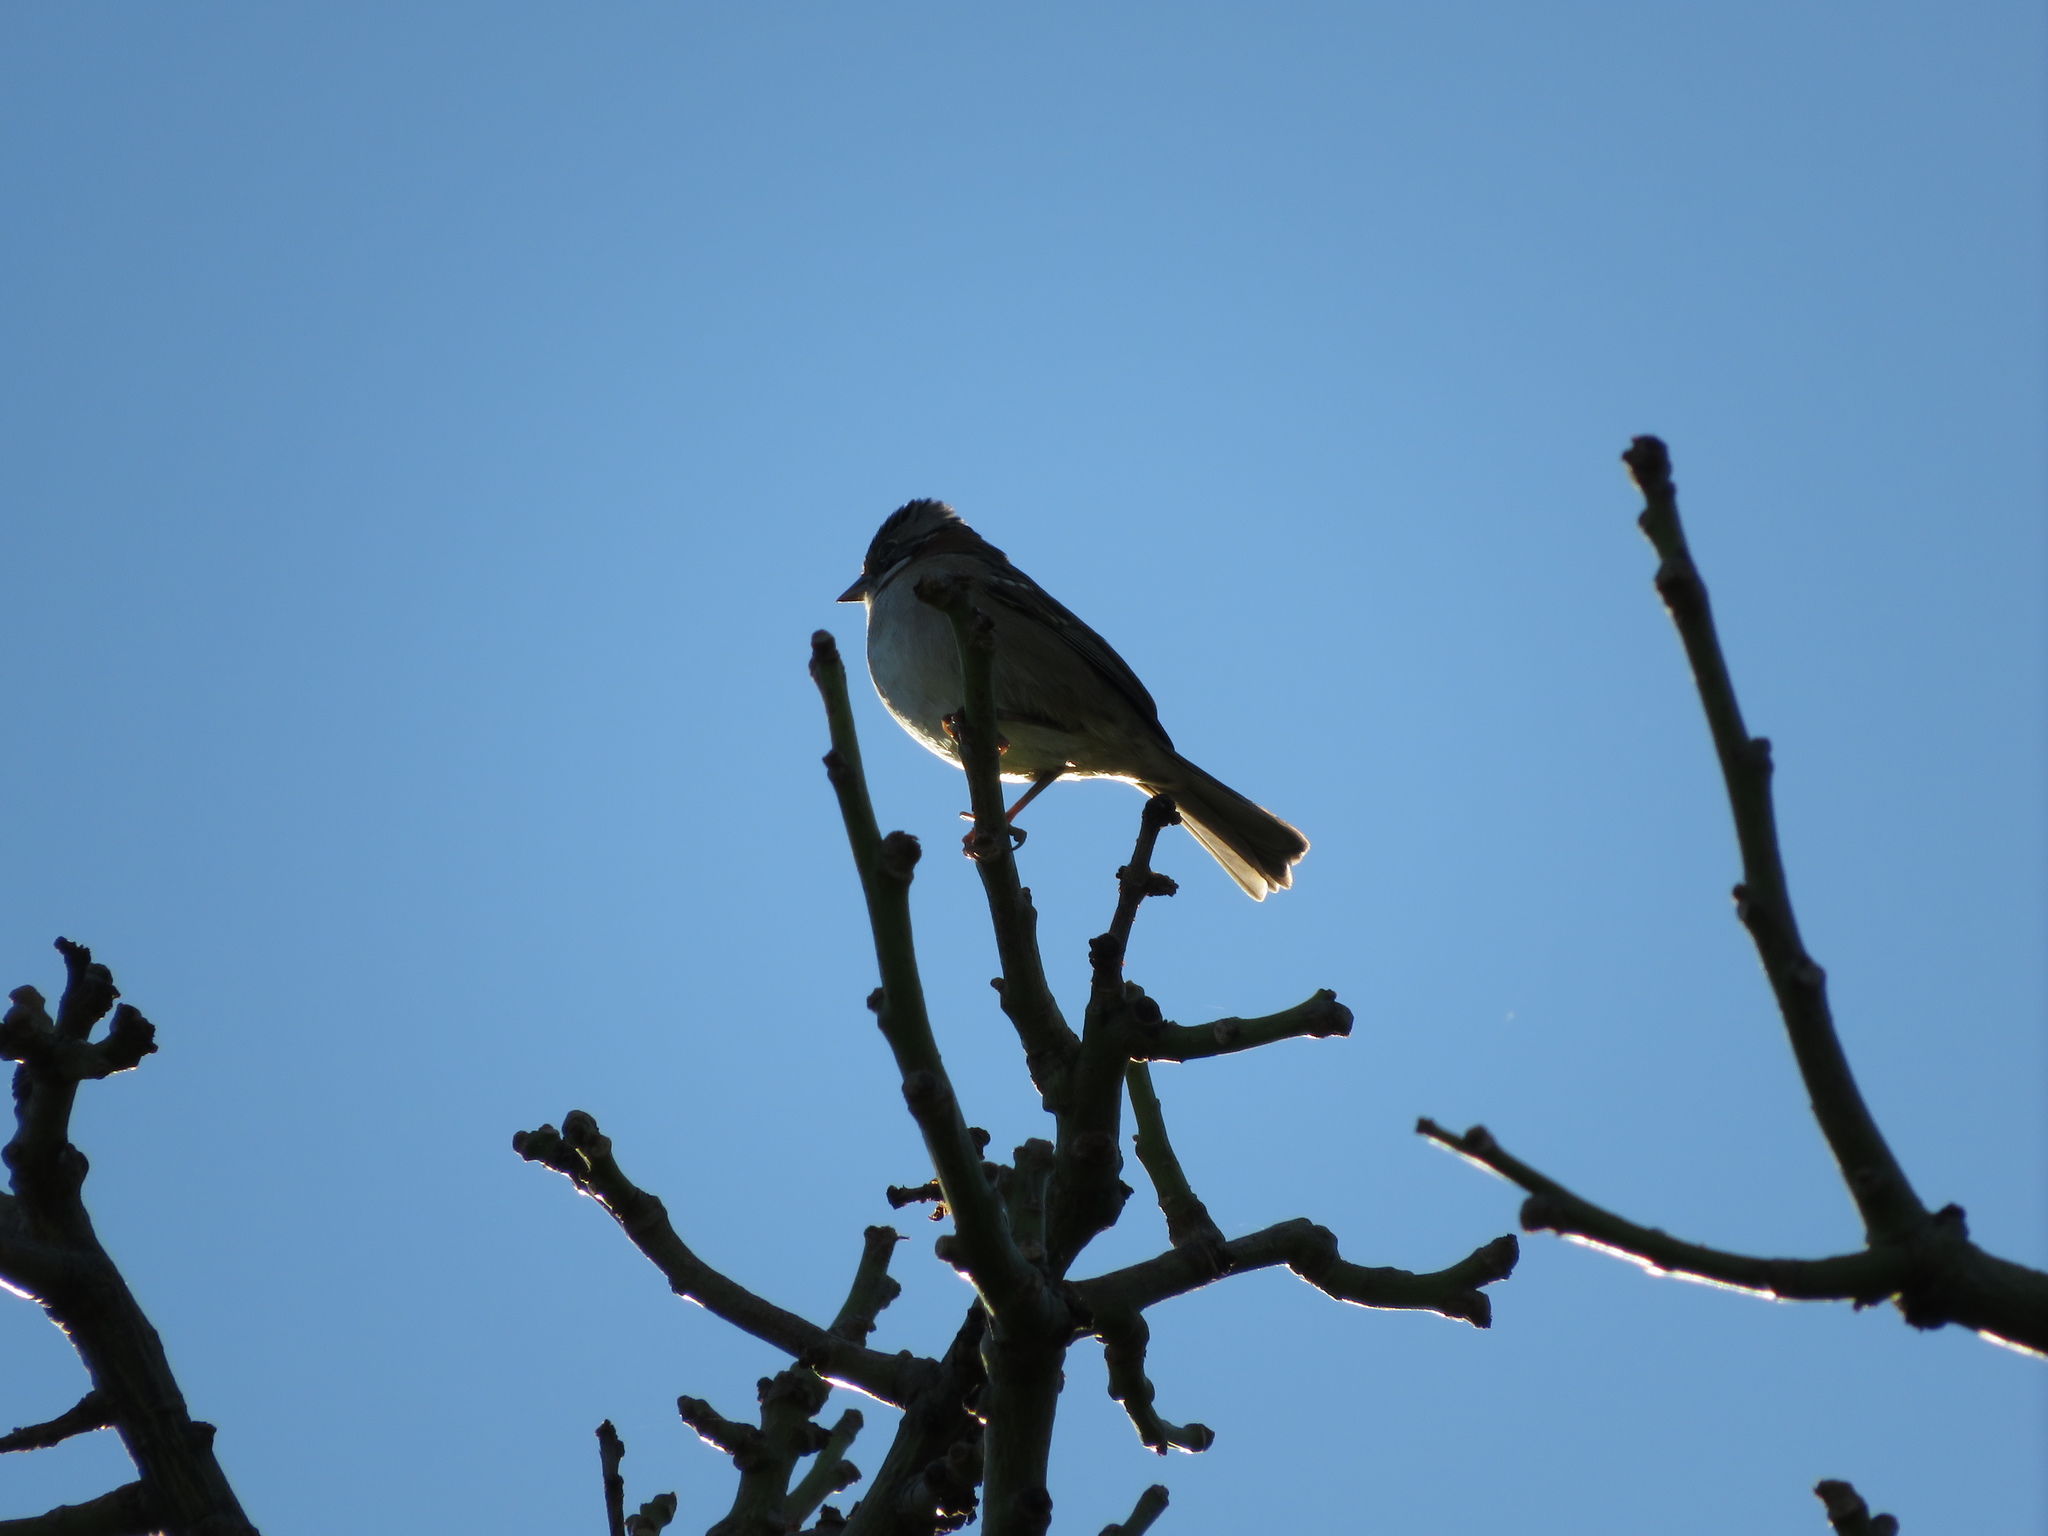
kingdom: Animalia
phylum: Chordata
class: Aves
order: Passeriformes
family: Passerellidae
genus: Zonotrichia
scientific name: Zonotrichia capensis
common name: Rufous-collared sparrow
